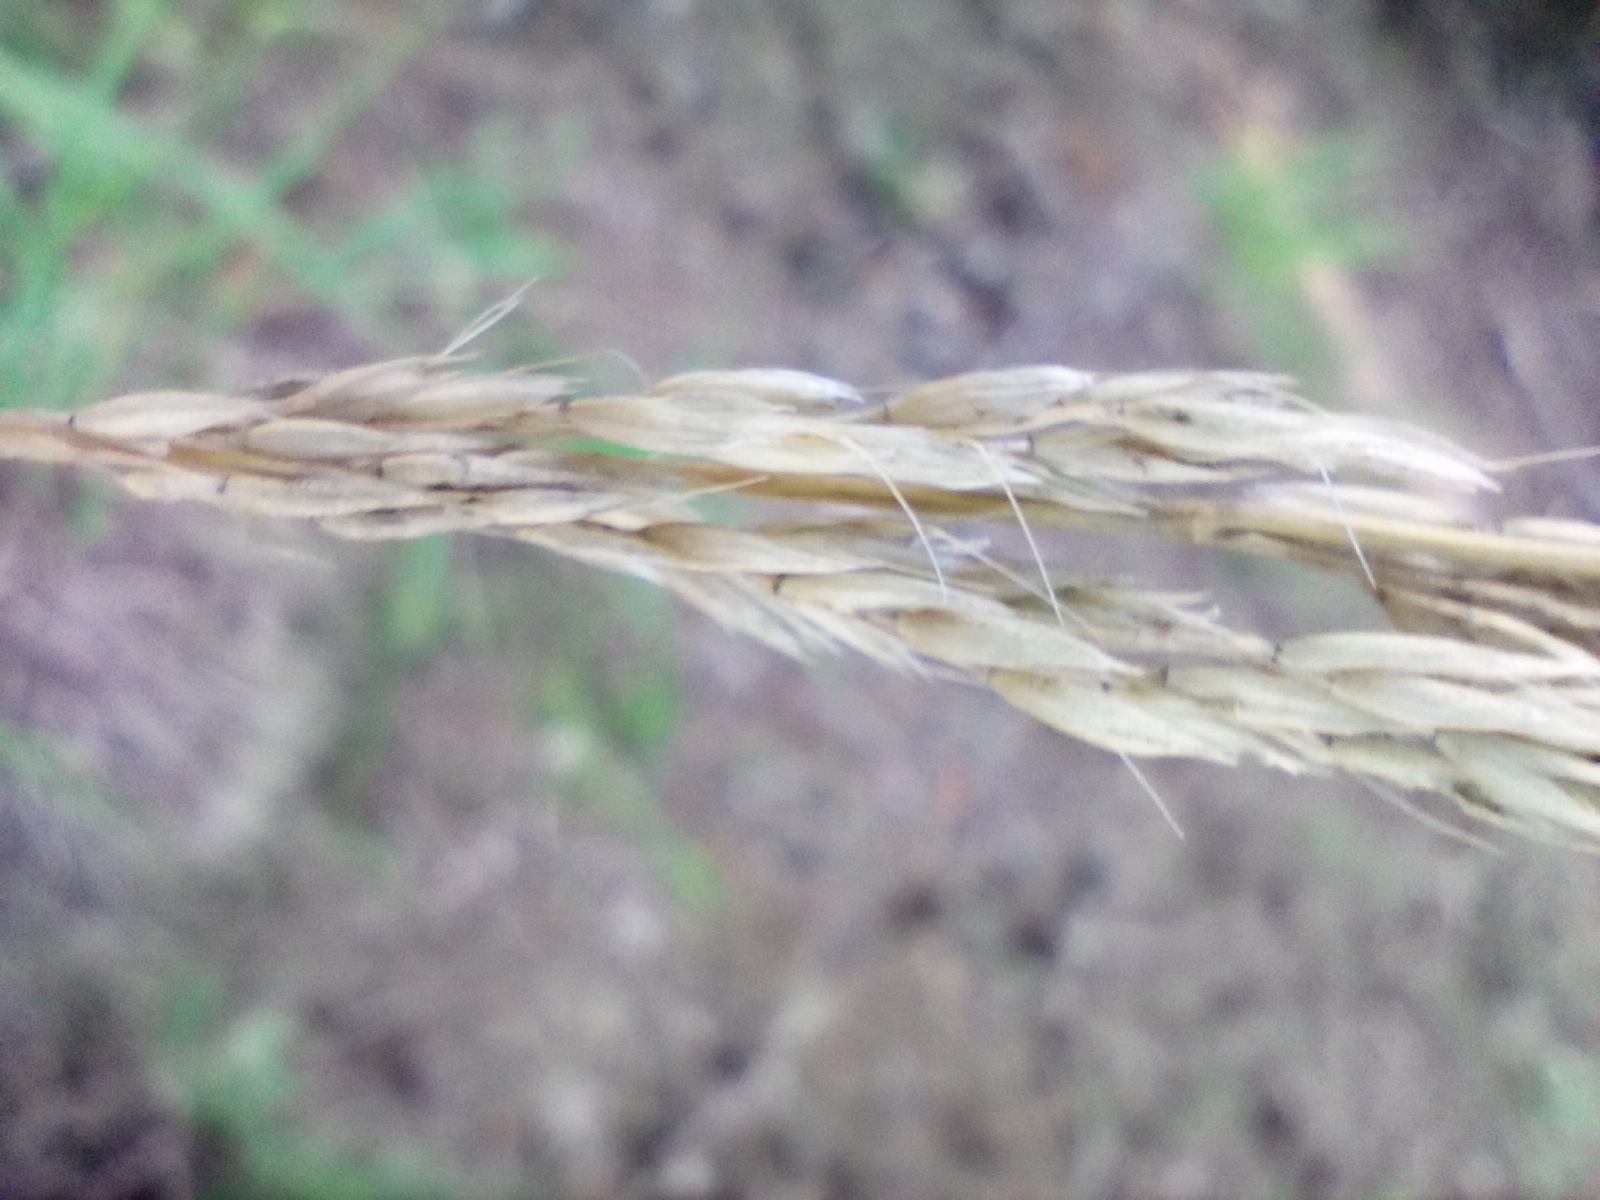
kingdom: Plantae
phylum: Tracheophyta
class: Liliopsida
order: Poales
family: Poaceae
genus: Calamagrostis
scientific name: Calamagrostis arundinacea
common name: Metskastik
